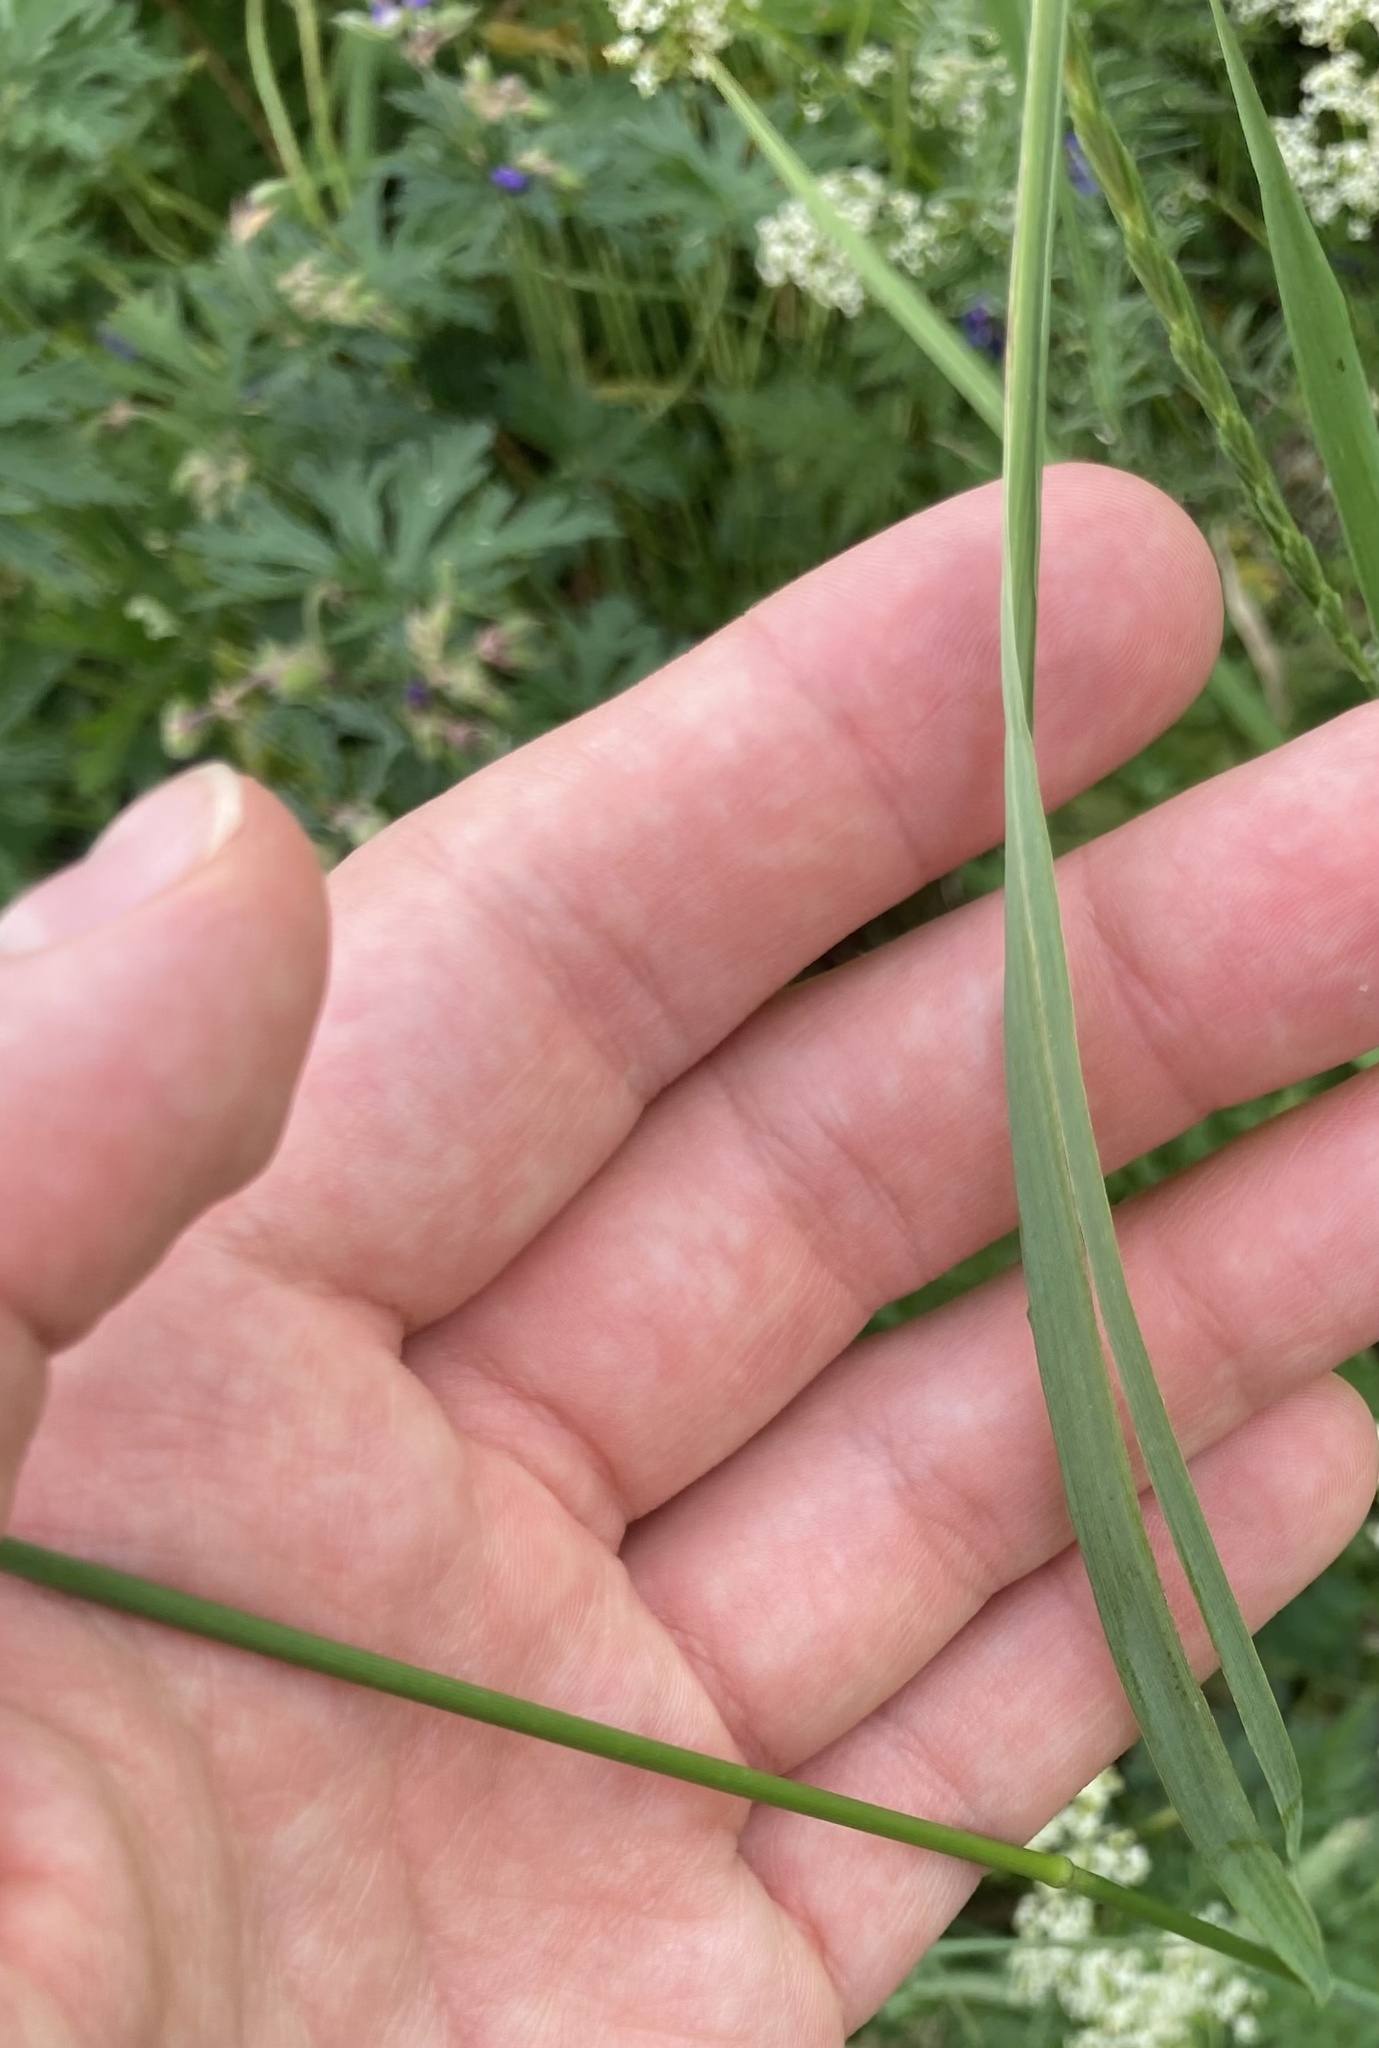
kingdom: Plantae
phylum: Tracheophyta
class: Liliopsida
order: Poales
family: Poaceae
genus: Bromus
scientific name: Bromus inermis
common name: Smooth brome
